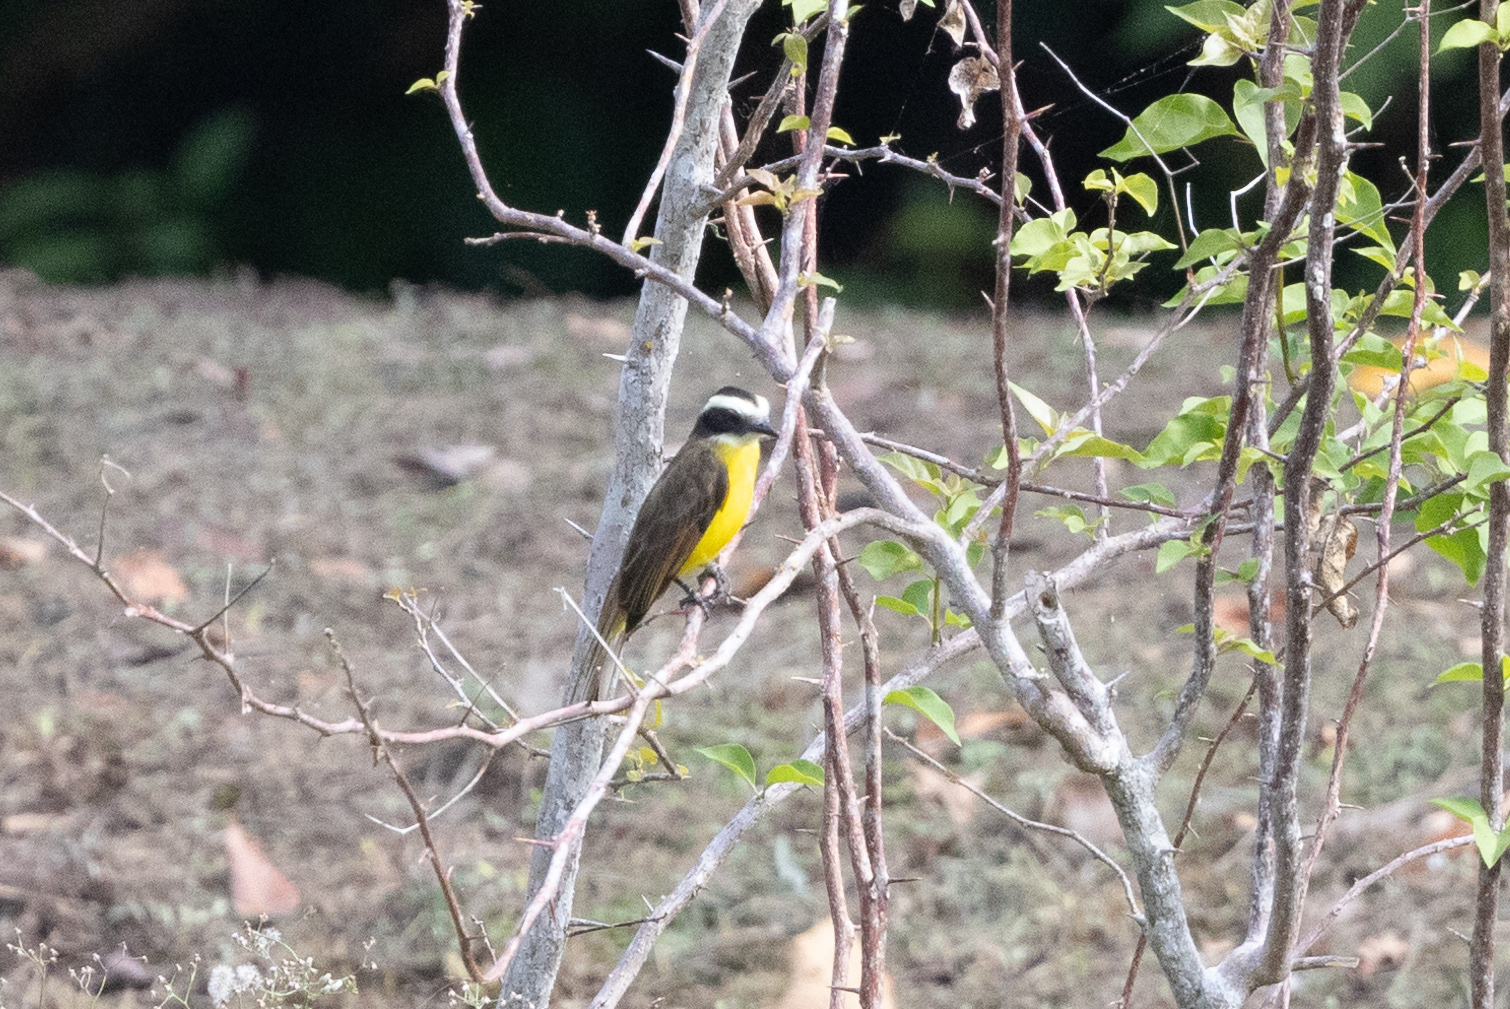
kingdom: Animalia
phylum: Chordata
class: Aves
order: Passeriformes
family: Tyrannidae
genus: Myiozetetes
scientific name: Myiozetetes cayanensis
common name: Rusty-margined flycatcher
